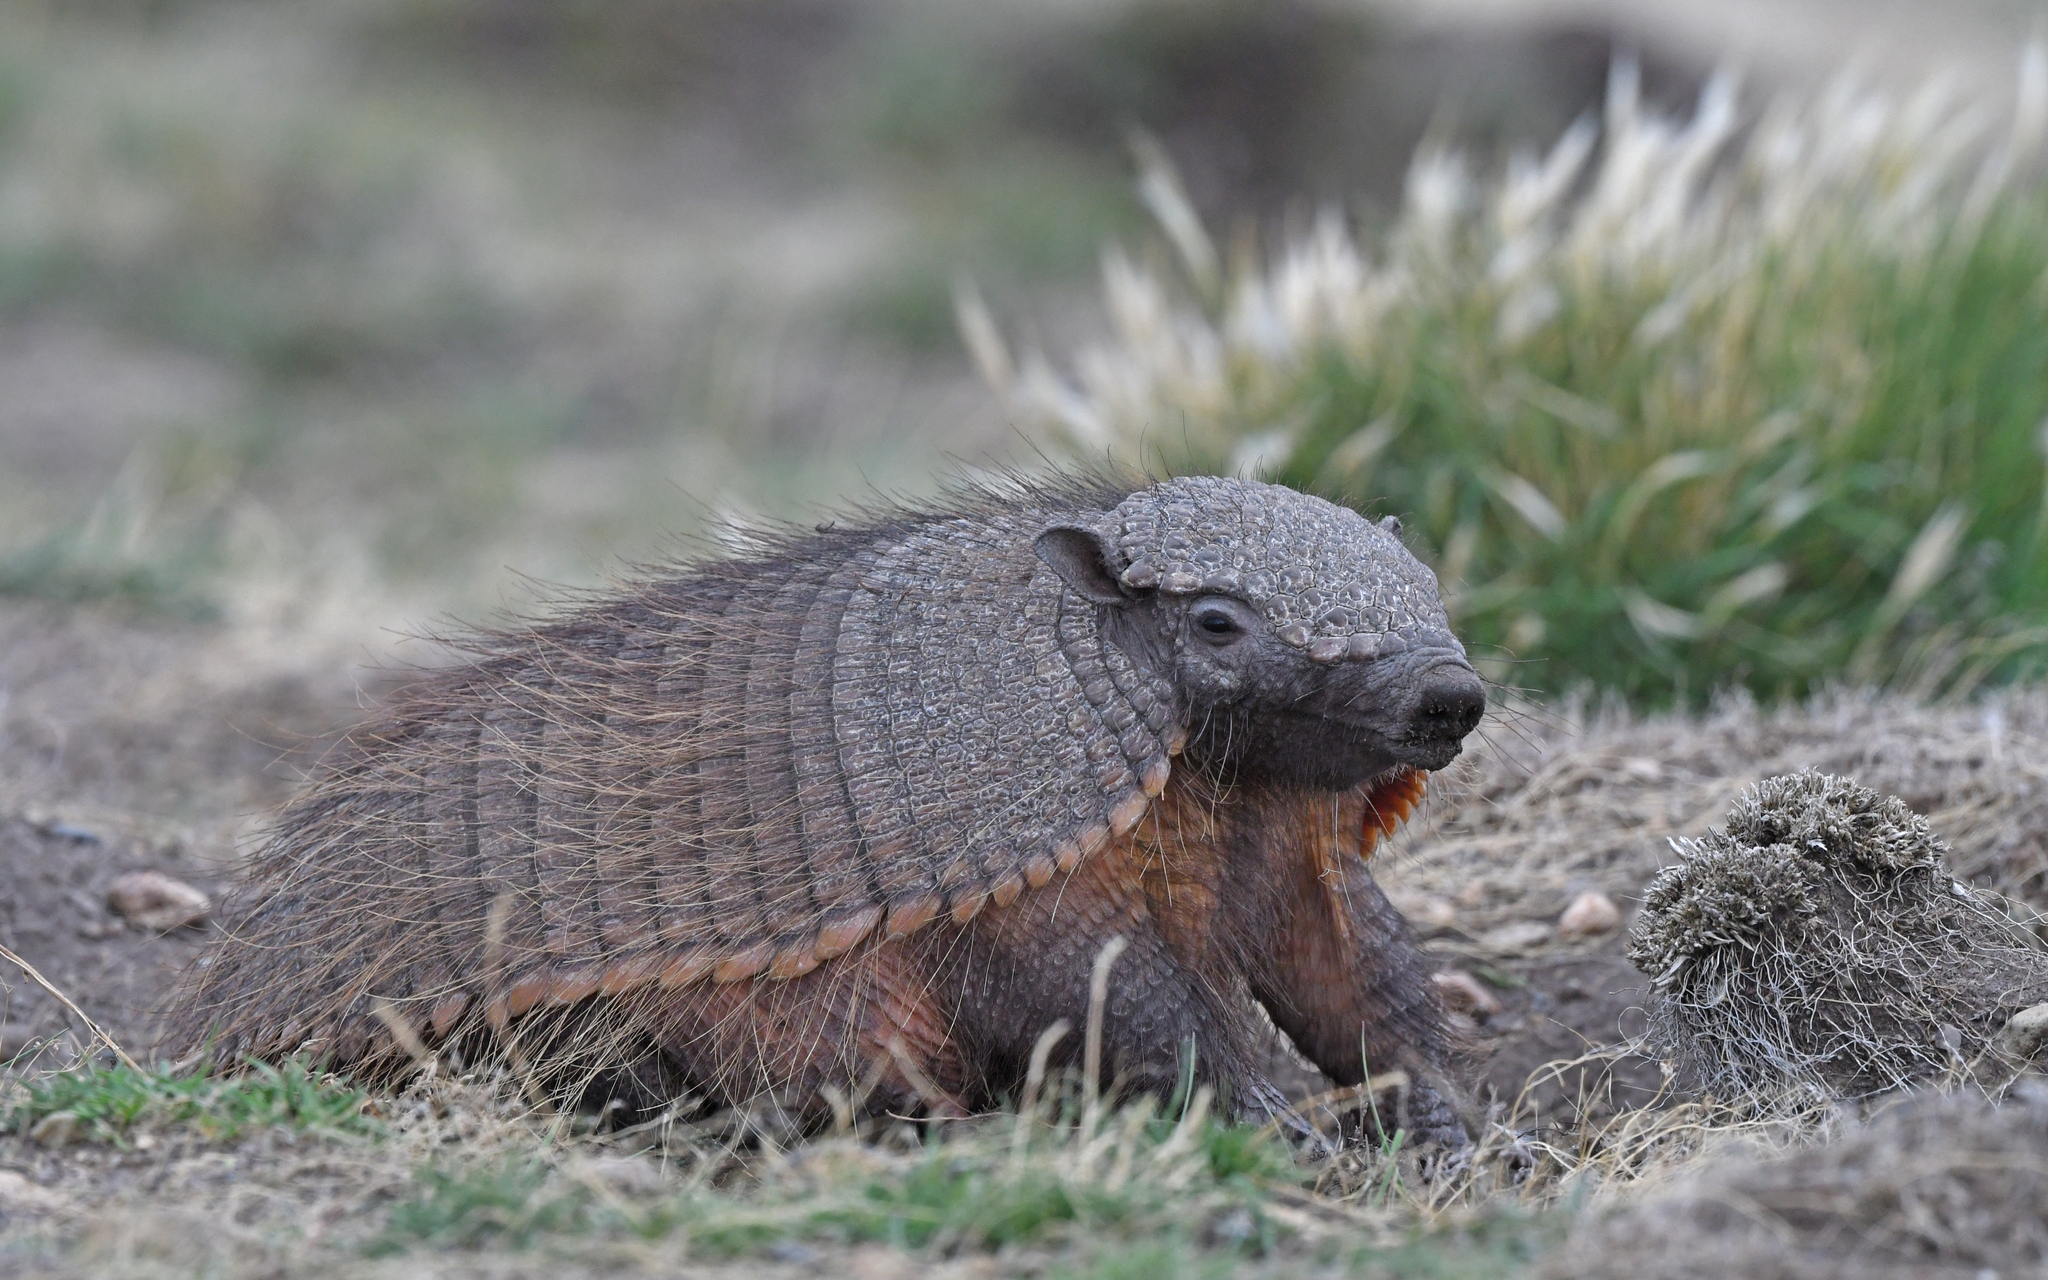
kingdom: Animalia
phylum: Chordata
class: Mammalia
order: Cingulata
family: Dasypodidae
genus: Chaetophractus
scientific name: Chaetophractus villosus
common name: Big hairy armadillo
